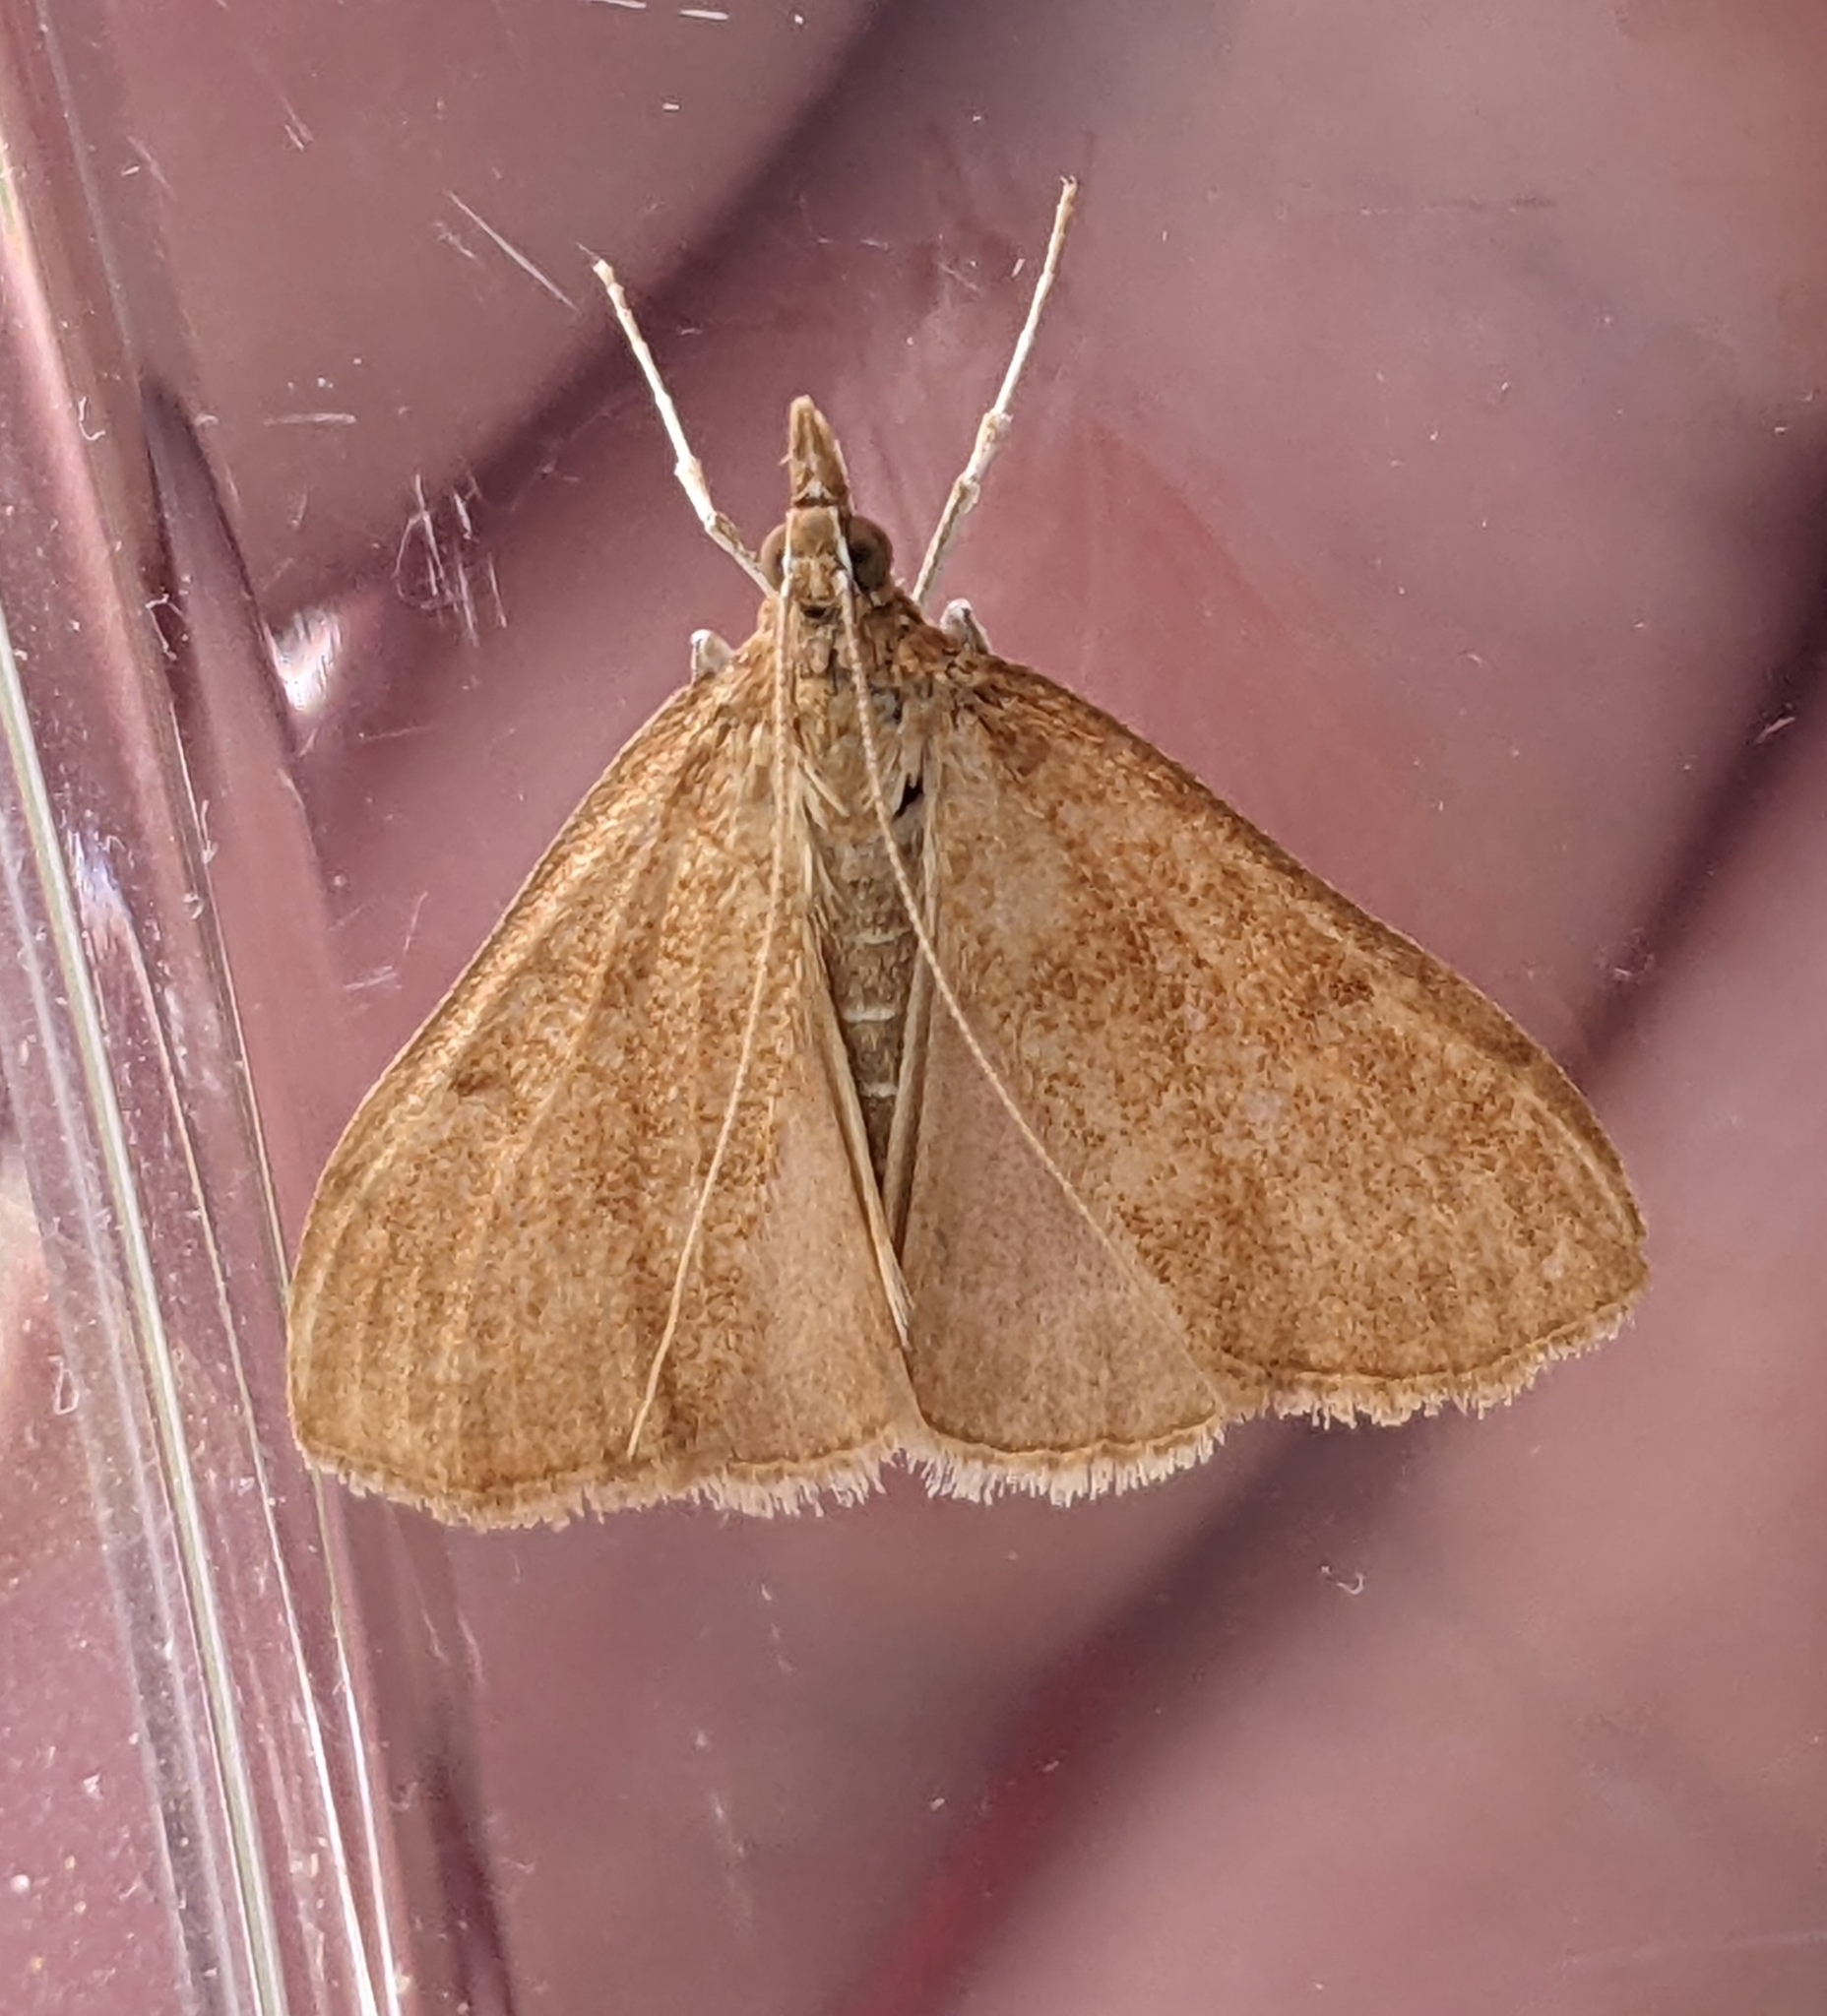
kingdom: Animalia
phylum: Arthropoda
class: Insecta
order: Lepidoptera
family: Crambidae
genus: Saucrobotys
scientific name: Saucrobotys futilalis
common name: Dogbane saucrobotys moth
